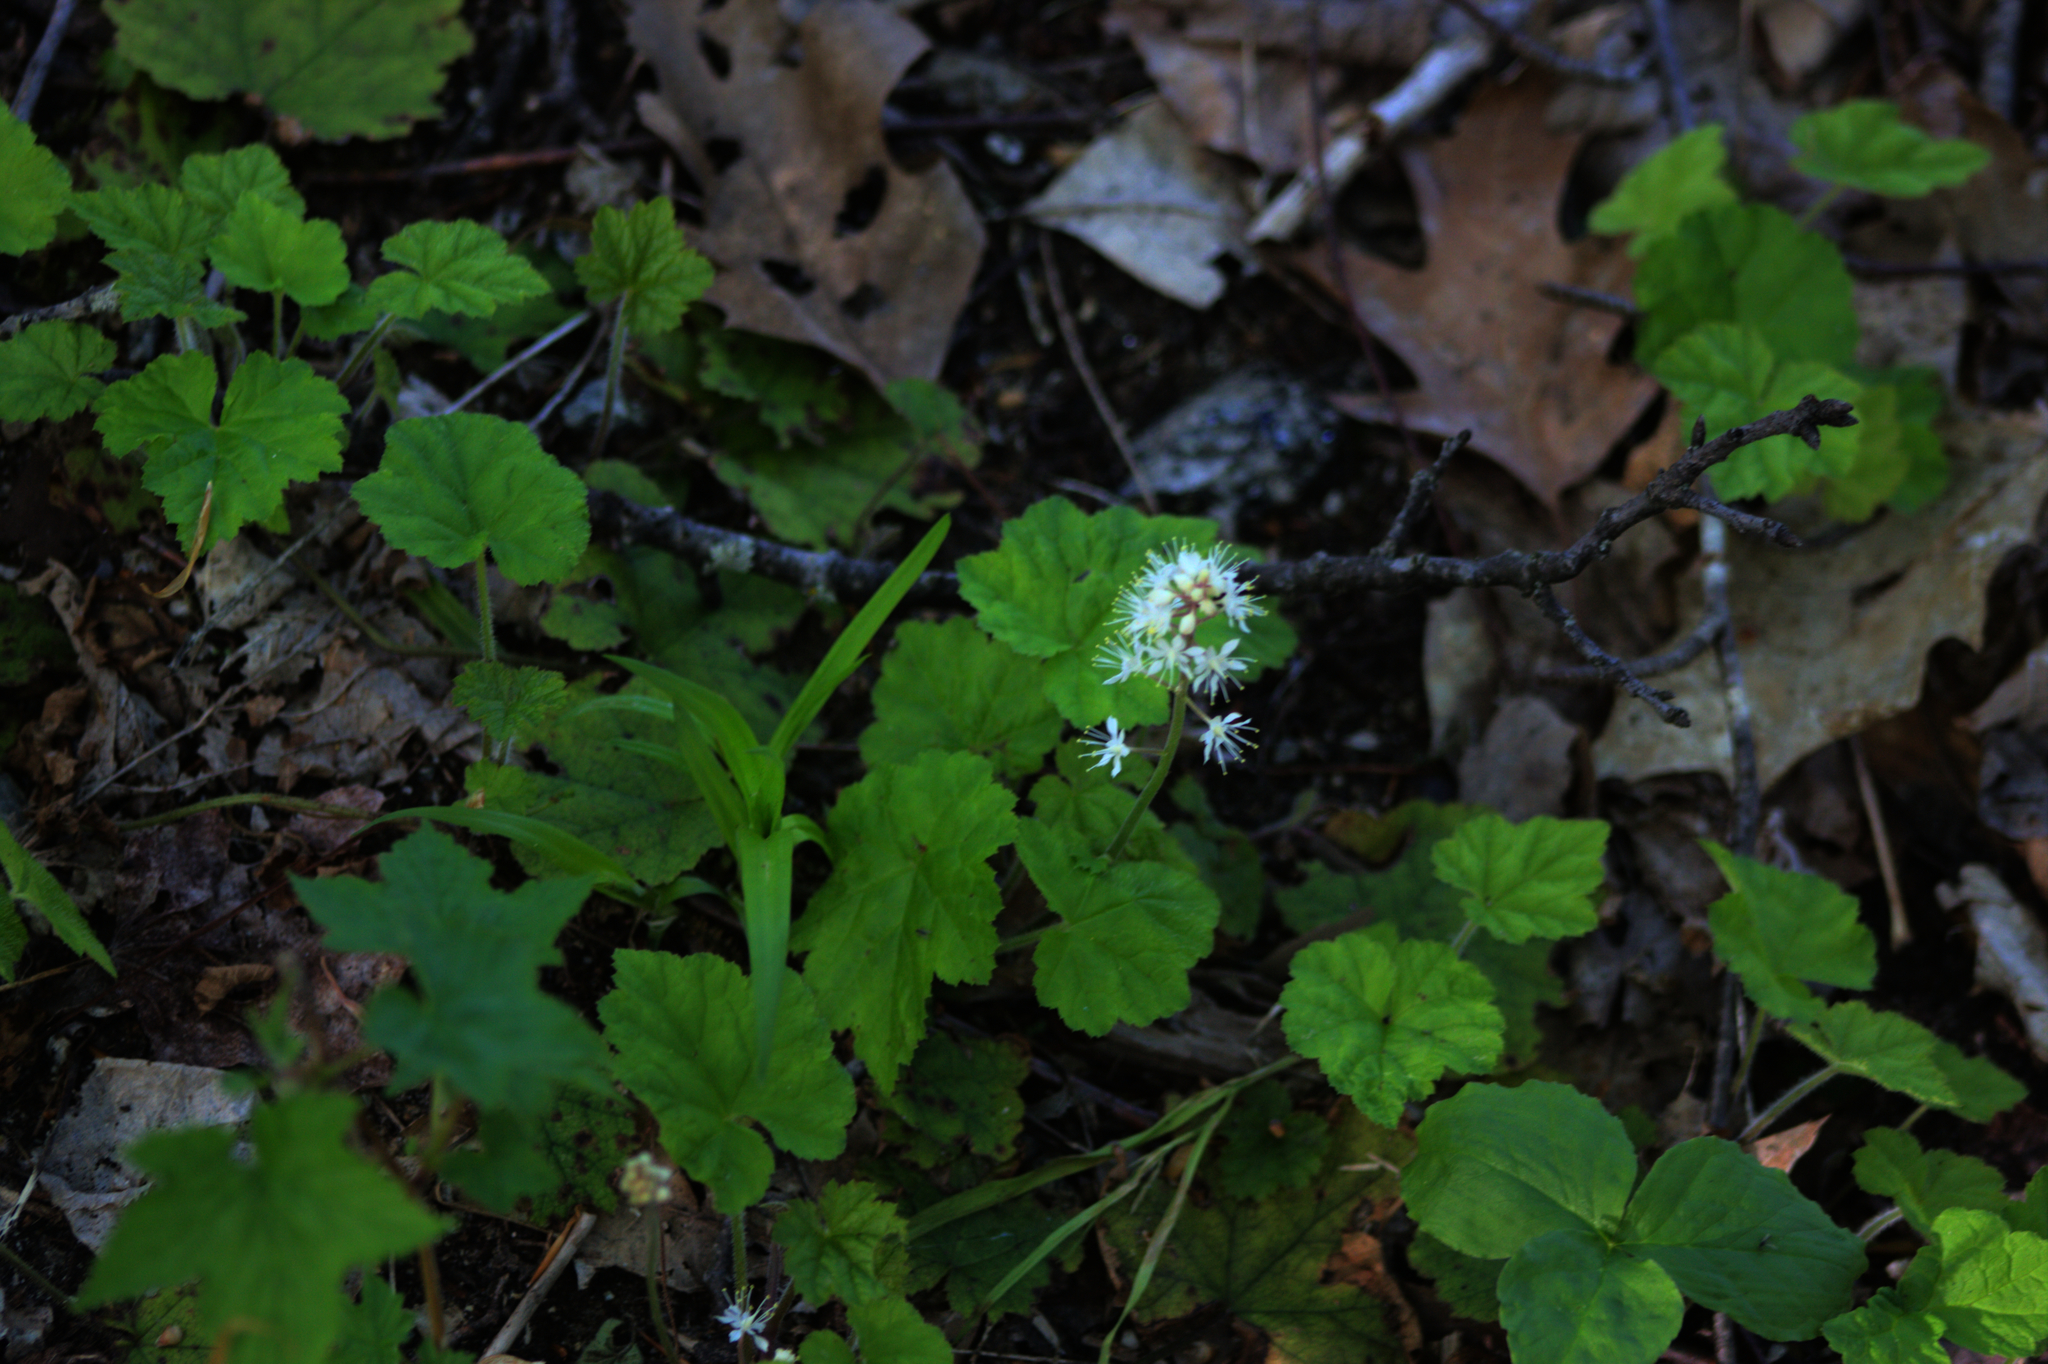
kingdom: Plantae
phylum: Tracheophyta
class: Magnoliopsida
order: Saxifragales
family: Saxifragaceae
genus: Tiarella
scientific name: Tiarella stolonifera
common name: Stoloniferous foamflower
